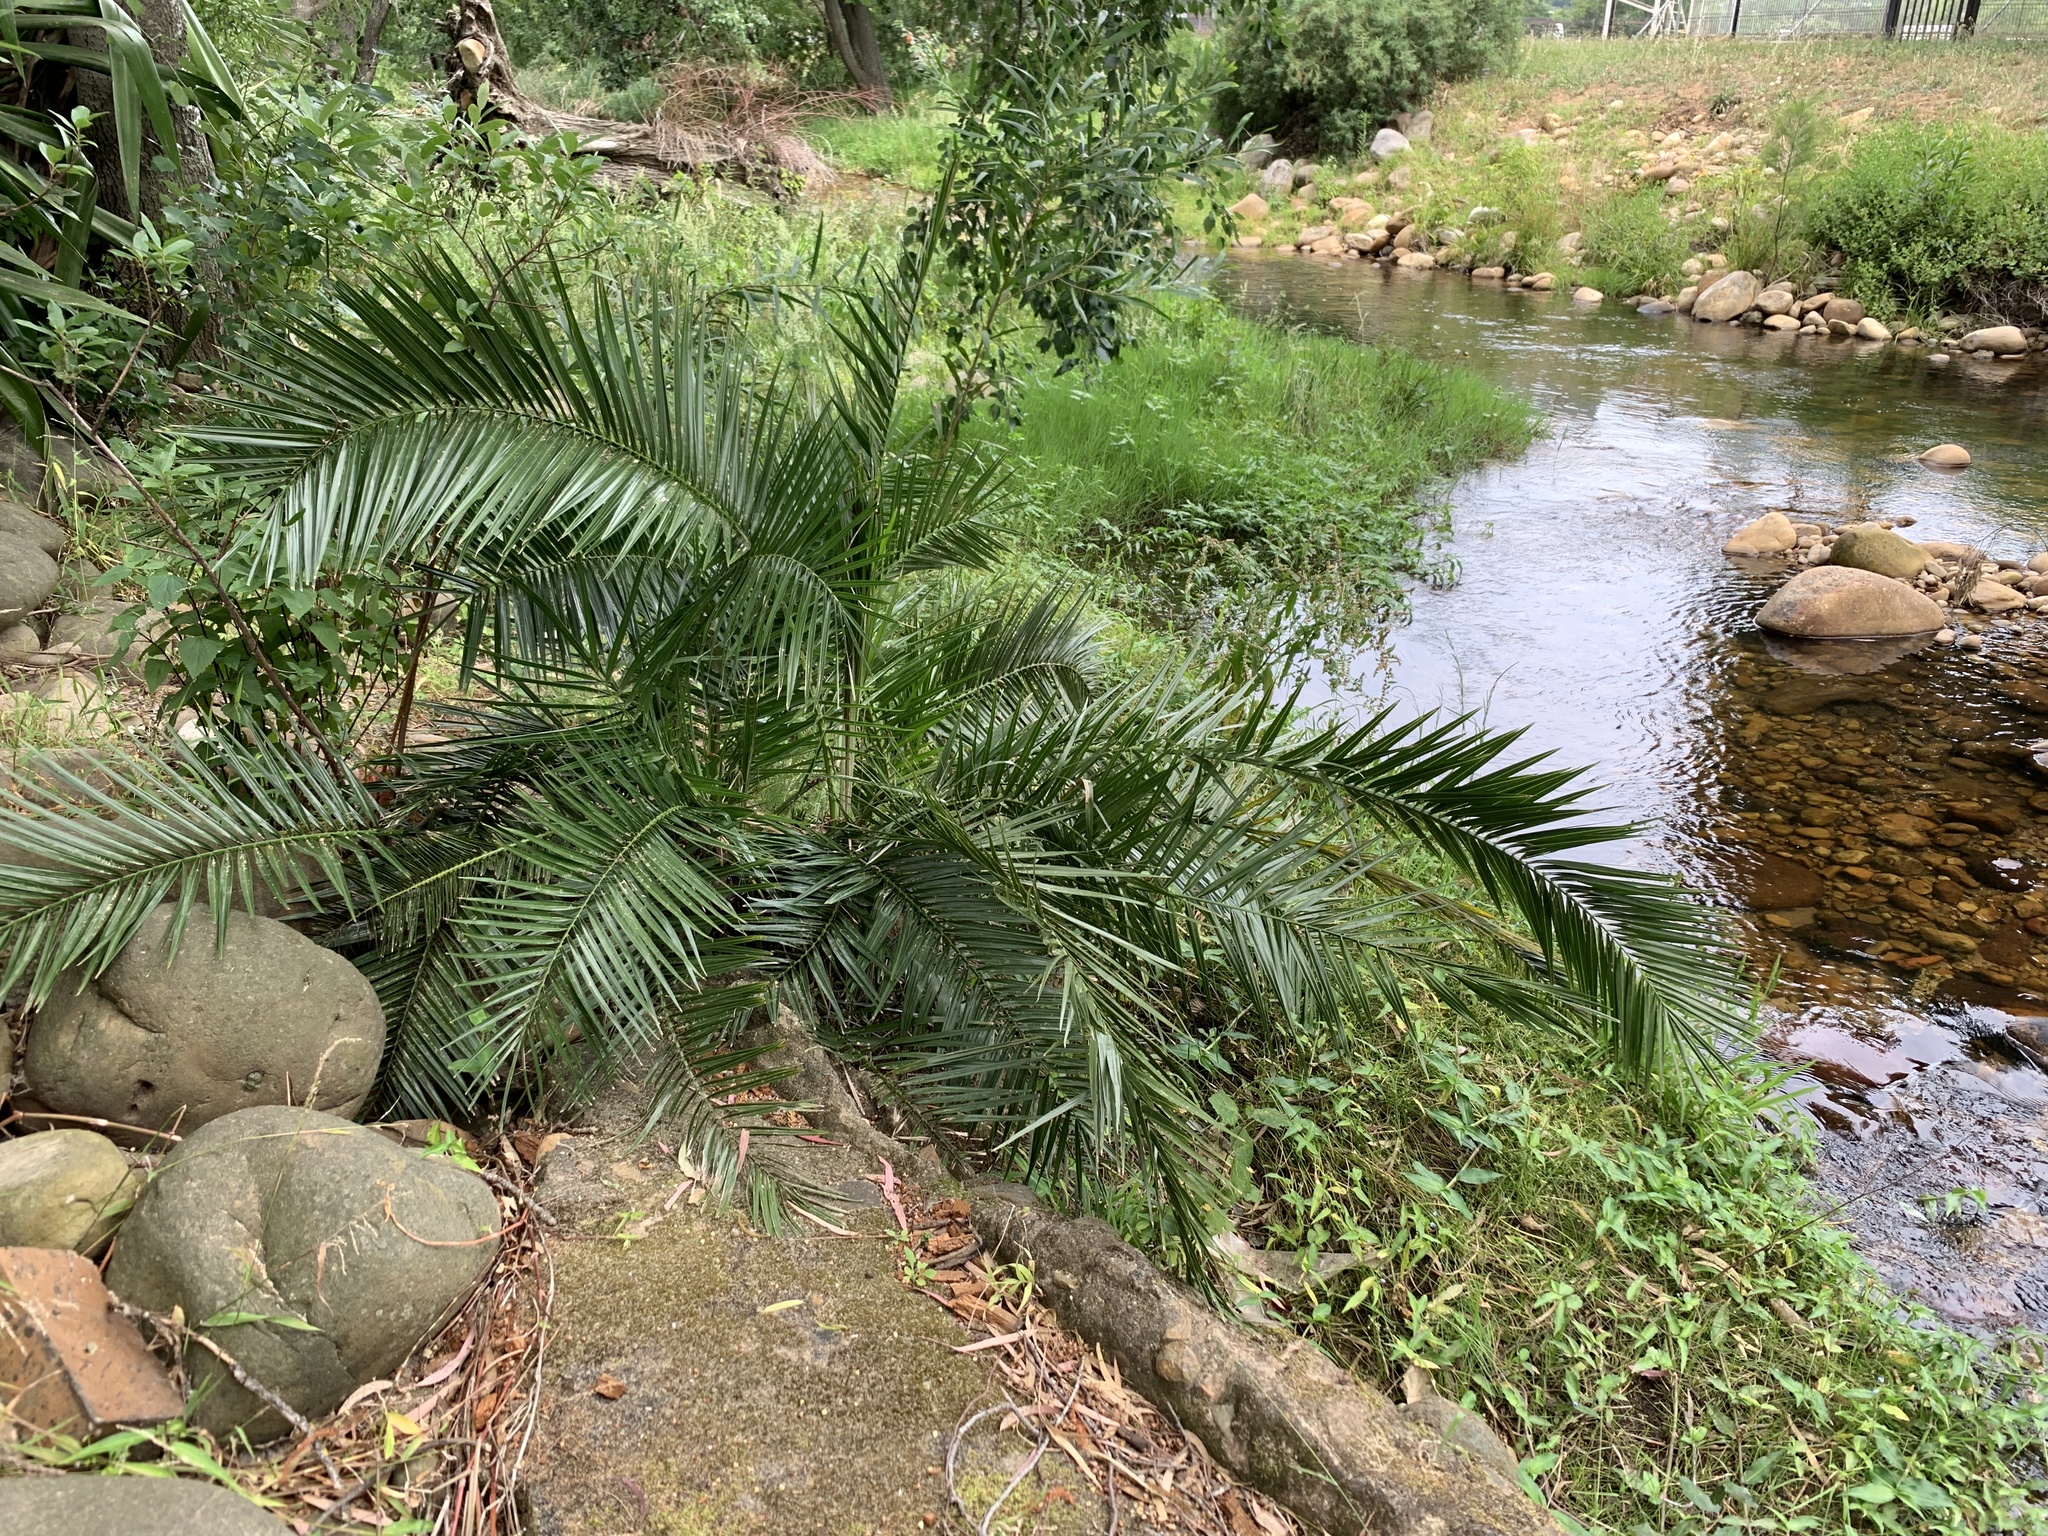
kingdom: Plantae
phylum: Tracheophyta
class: Liliopsida
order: Arecales
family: Arecaceae
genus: Phoenix
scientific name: Phoenix reclinata
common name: Senegal date palm
